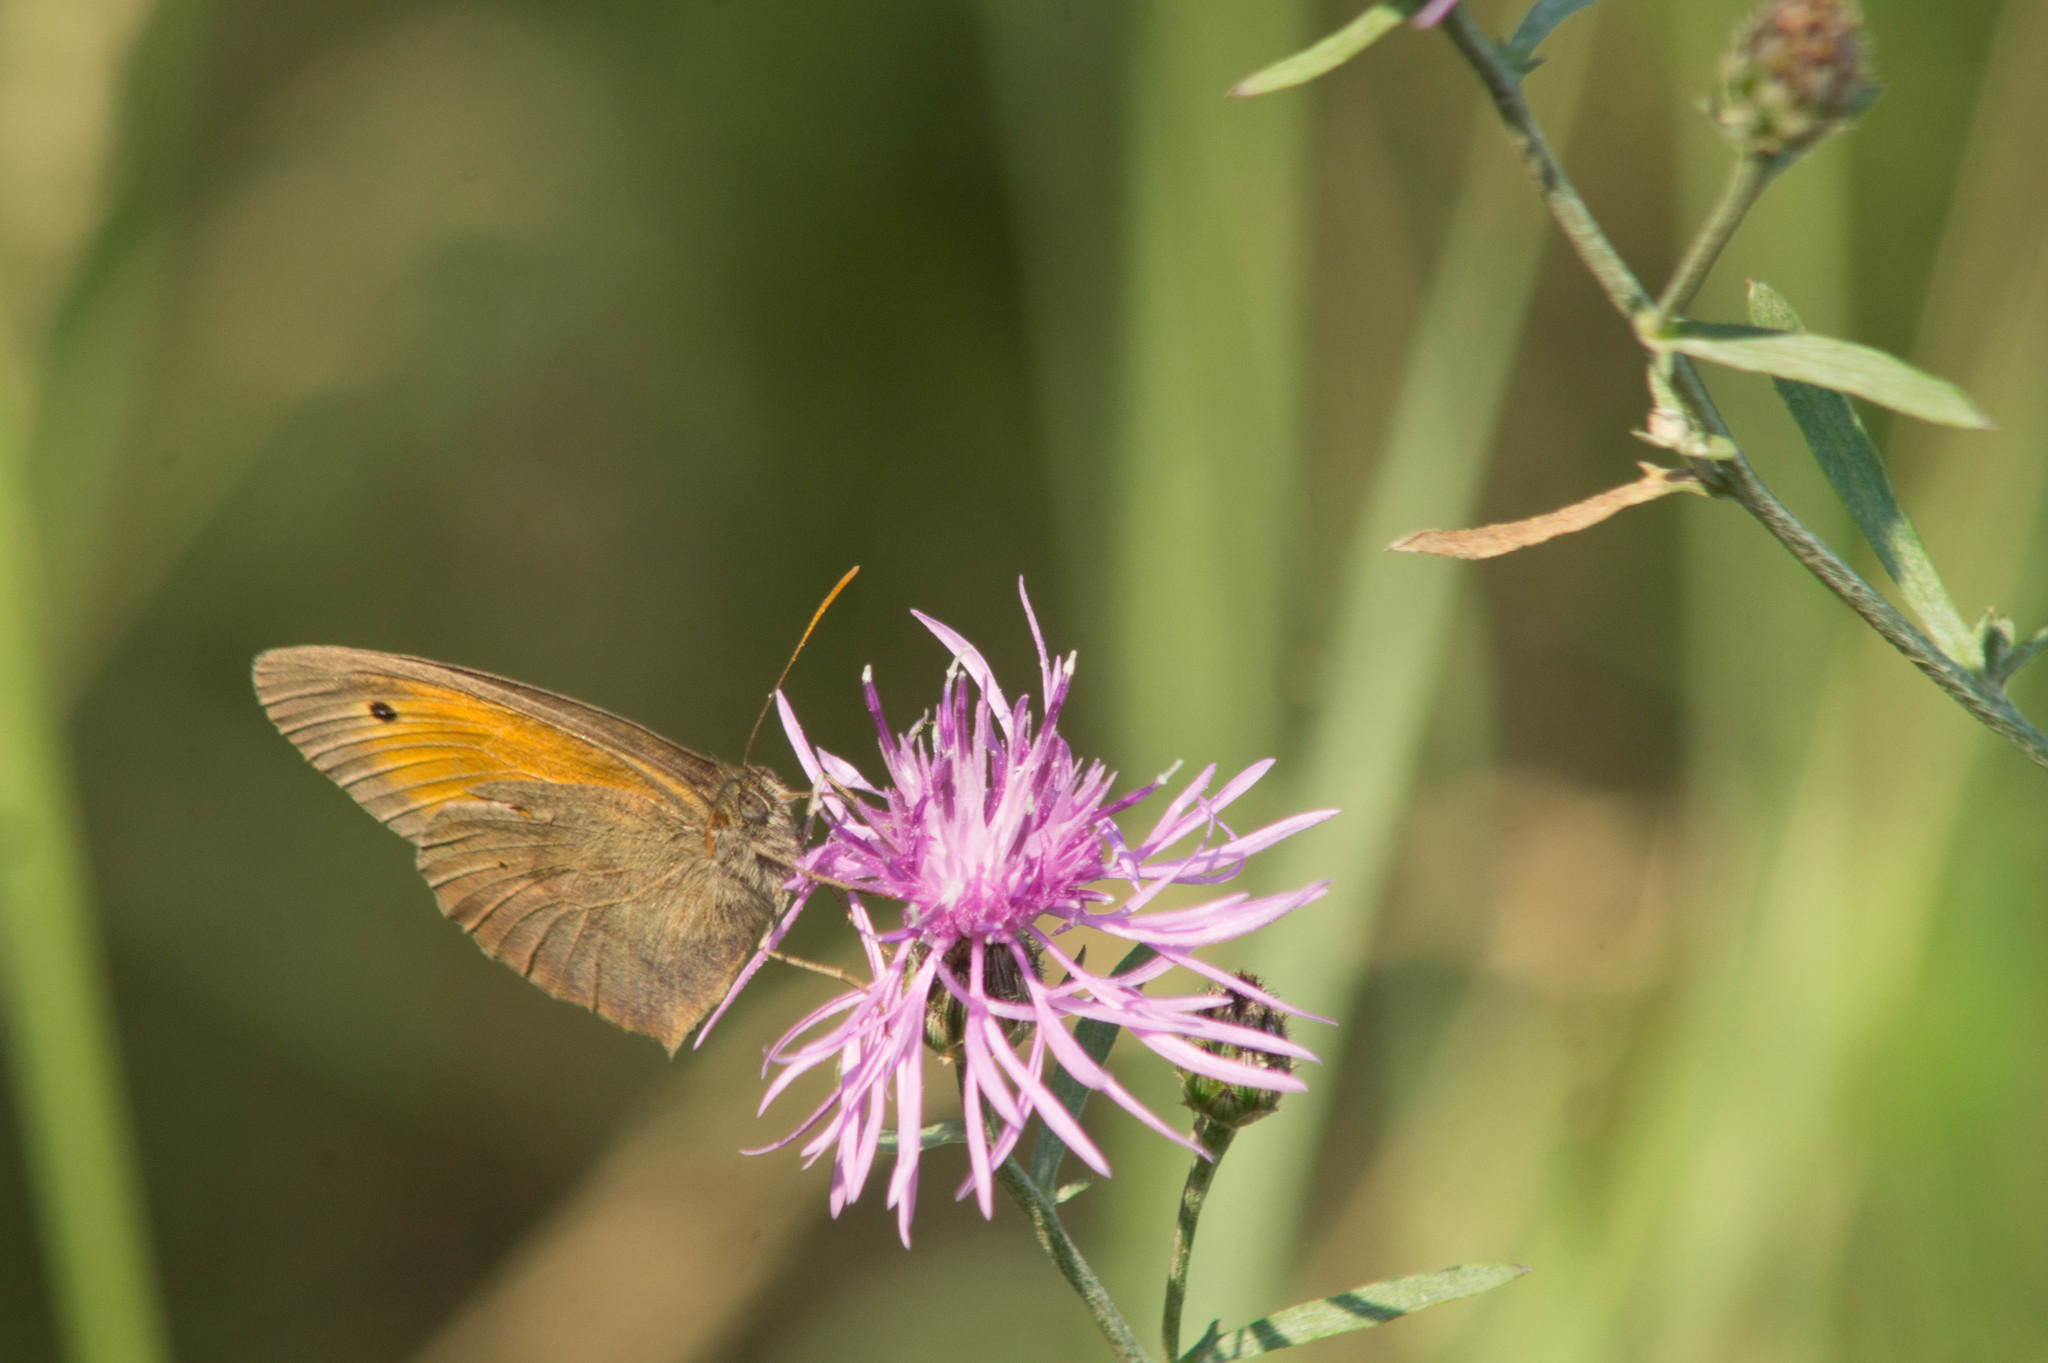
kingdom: Animalia
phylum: Arthropoda
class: Insecta
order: Lepidoptera
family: Nymphalidae
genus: Maniola
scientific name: Maniola jurtina
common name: Meadow brown
